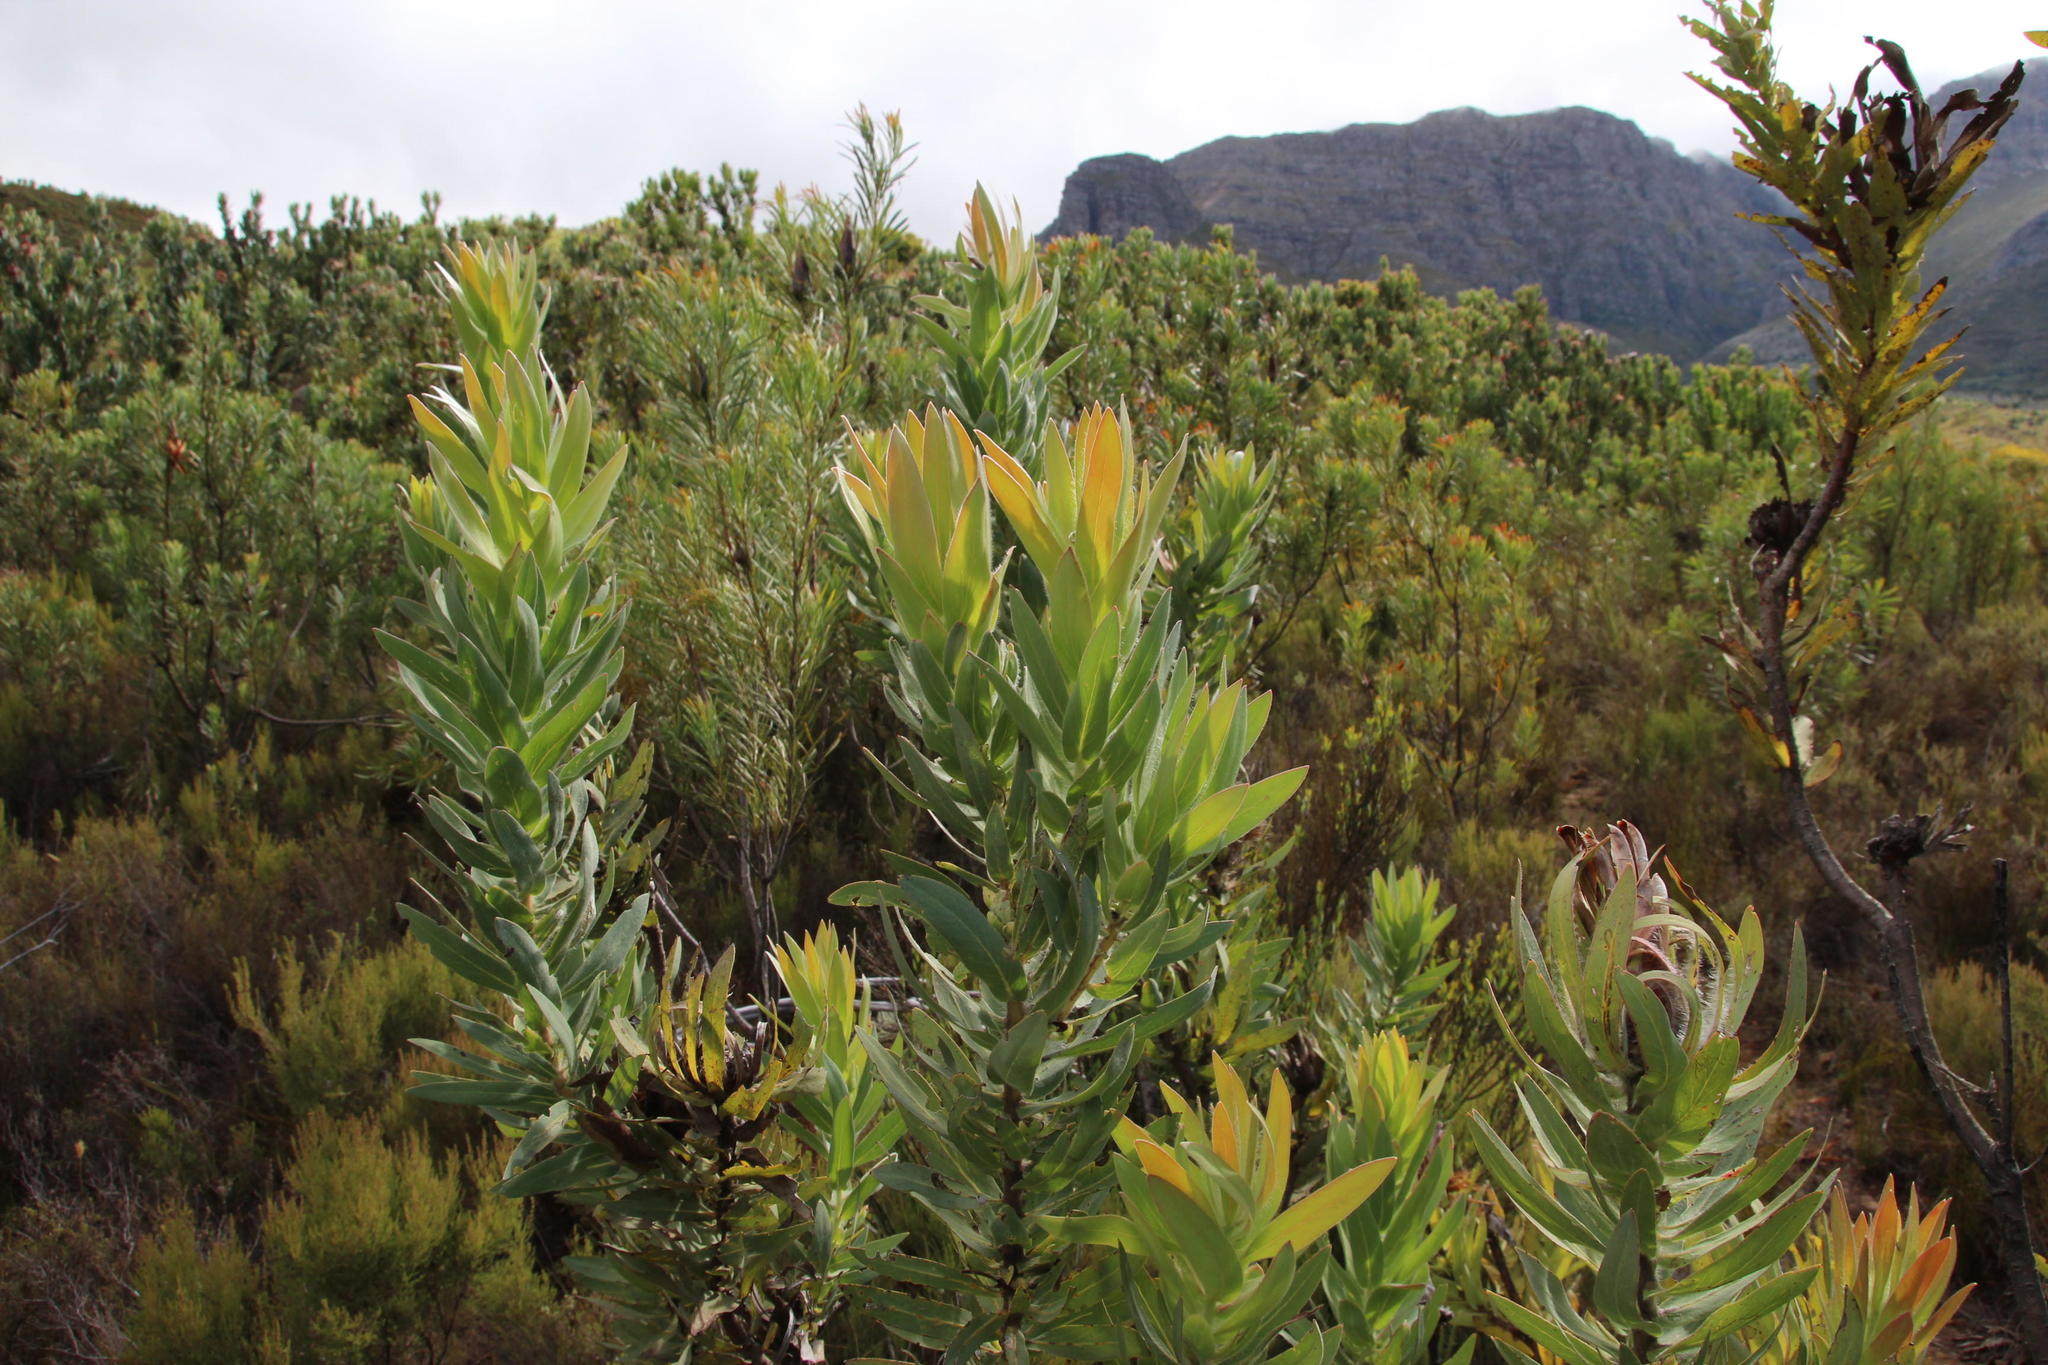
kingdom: Plantae
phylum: Tracheophyta
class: Magnoliopsida
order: Proteales
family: Proteaceae
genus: Protea
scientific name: Protea coronata
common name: Green sugarbush
